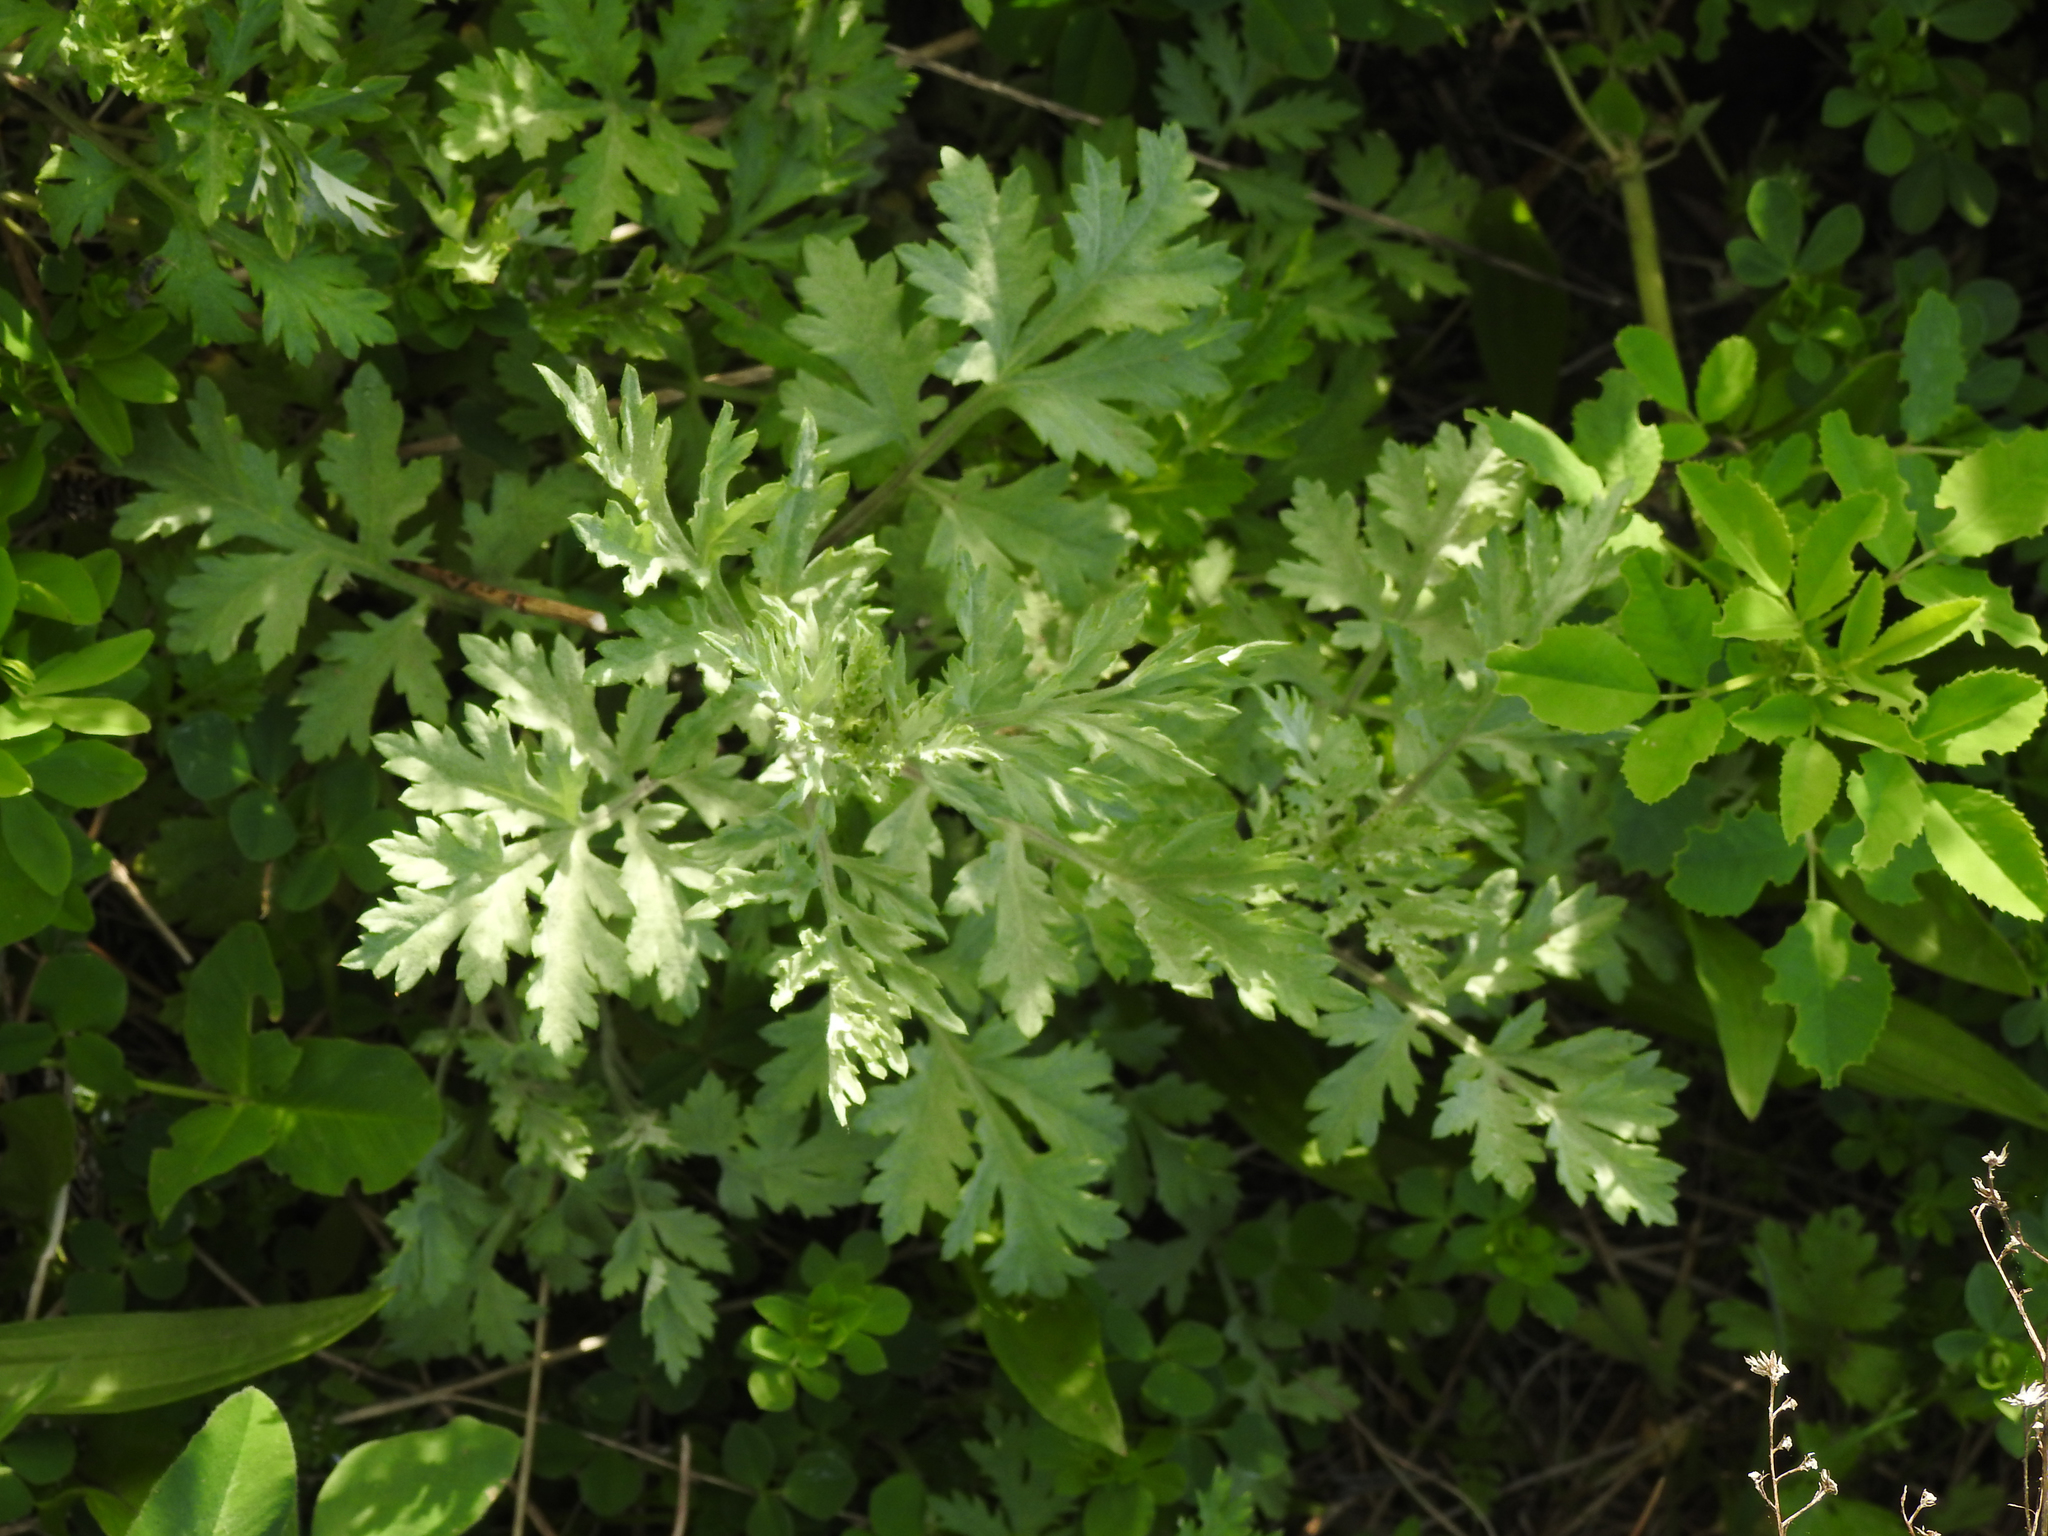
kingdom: Plantae
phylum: Tracheophyta
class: Magnoliopsida
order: Asterales
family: Asteraceae
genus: Artemisia
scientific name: Artemisia vulgaris
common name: Mugwort
